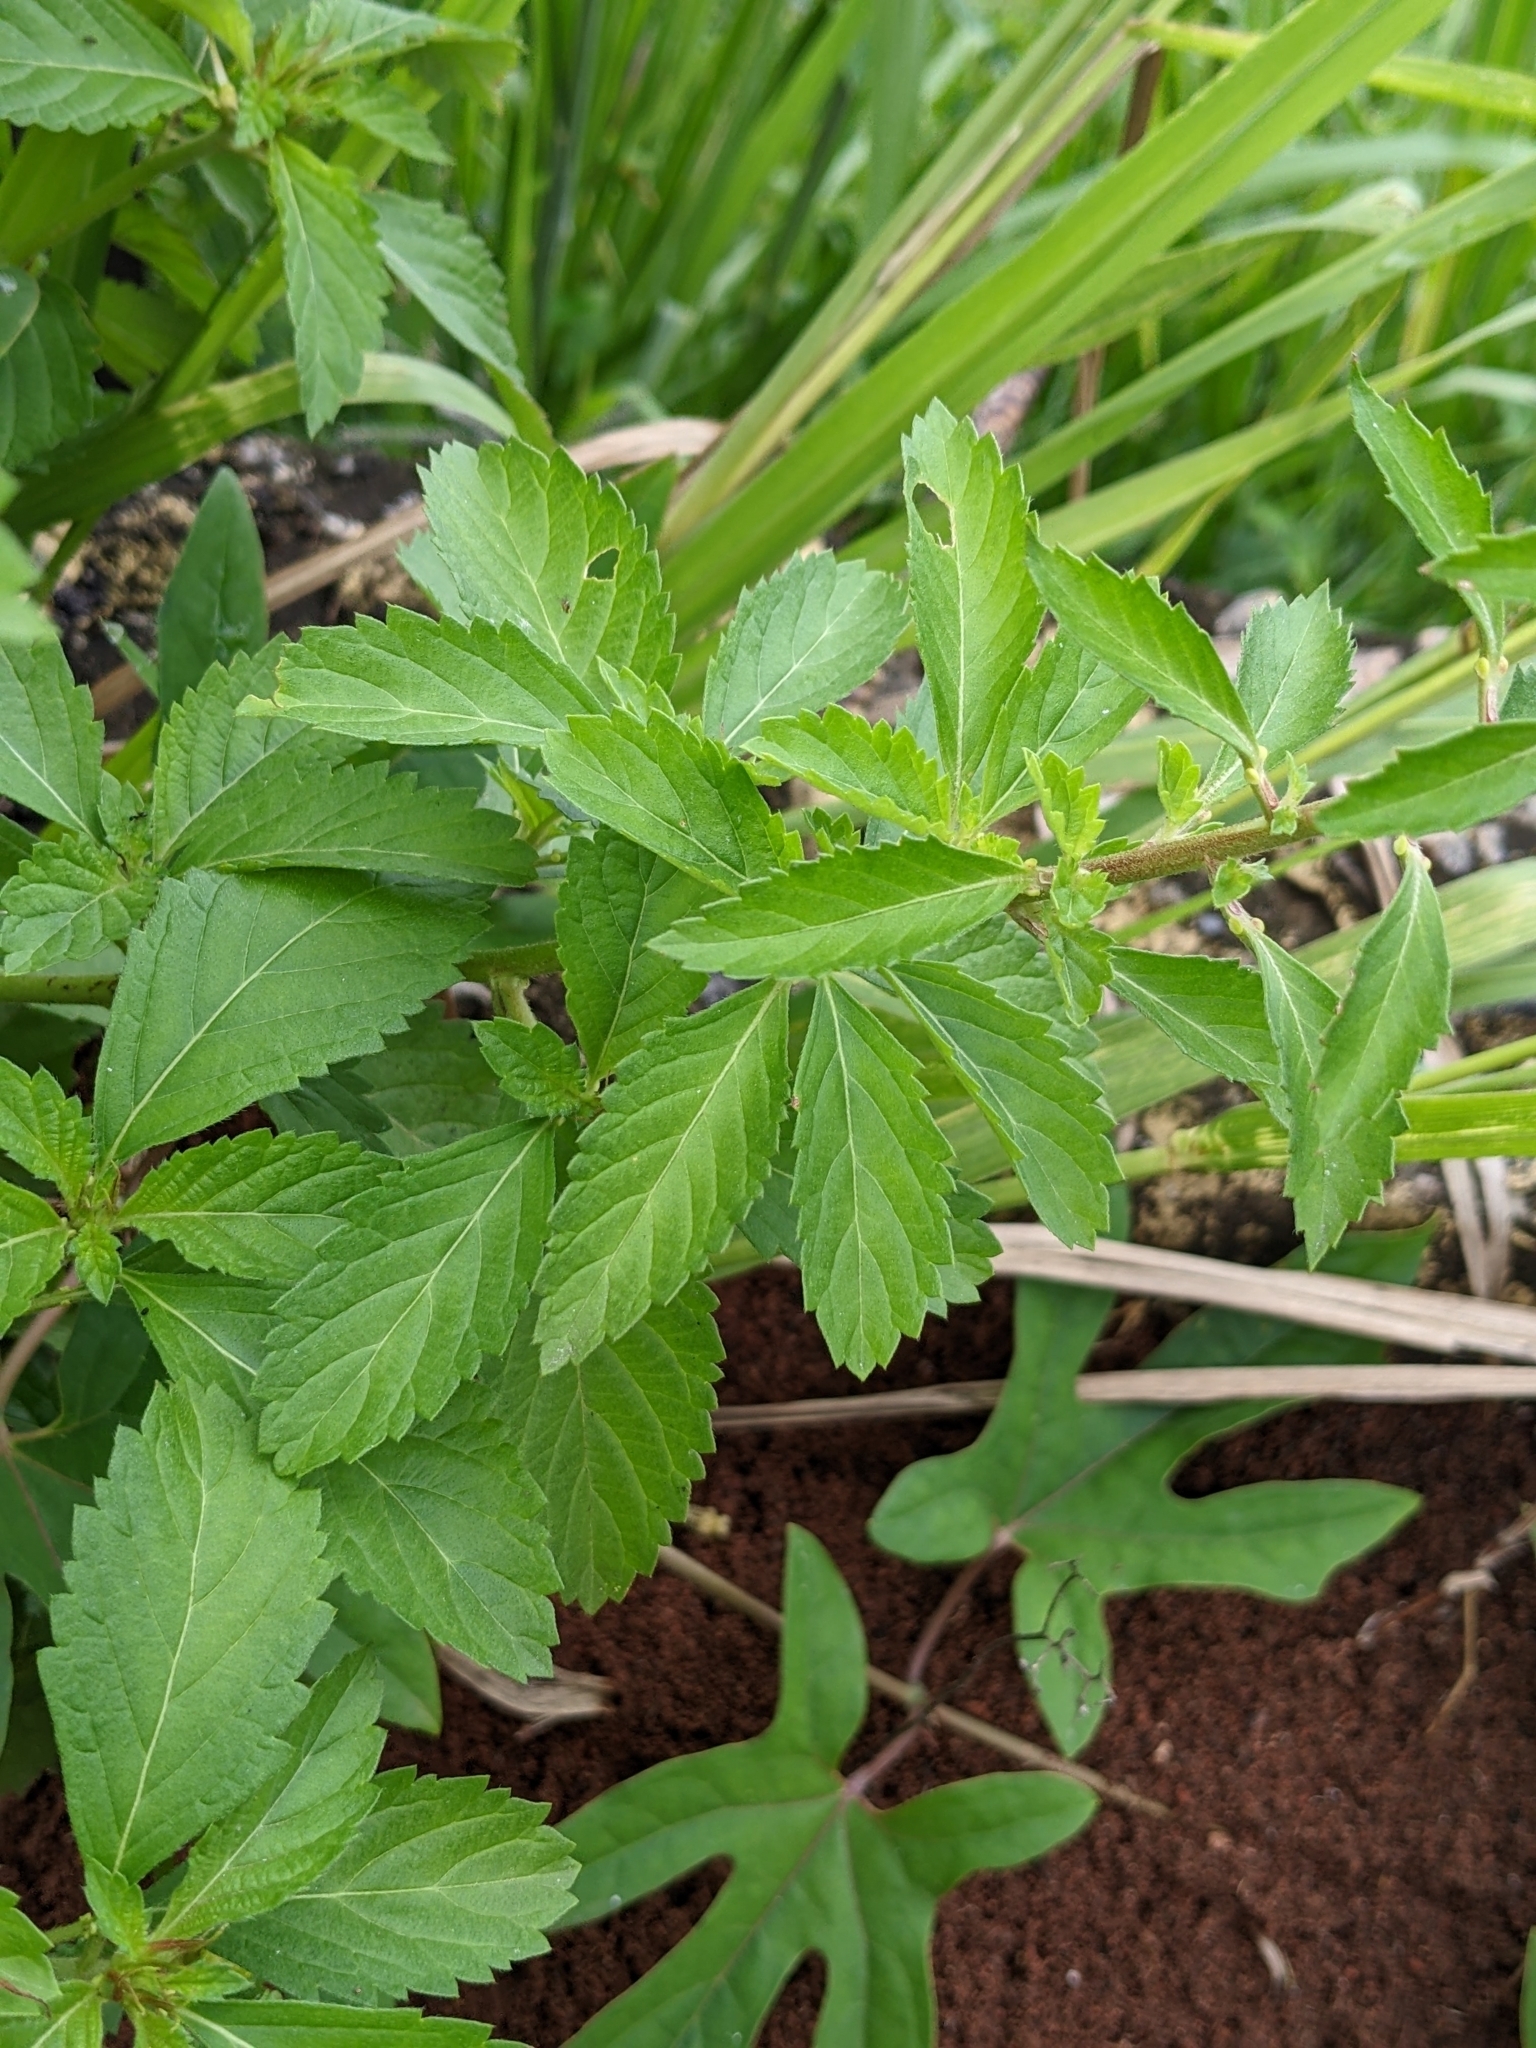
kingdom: Plantae
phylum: Tracheophyta
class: Magnoliopsida
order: Malpighiales
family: Turneraceae
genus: Turnera
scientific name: Turnera subulata
